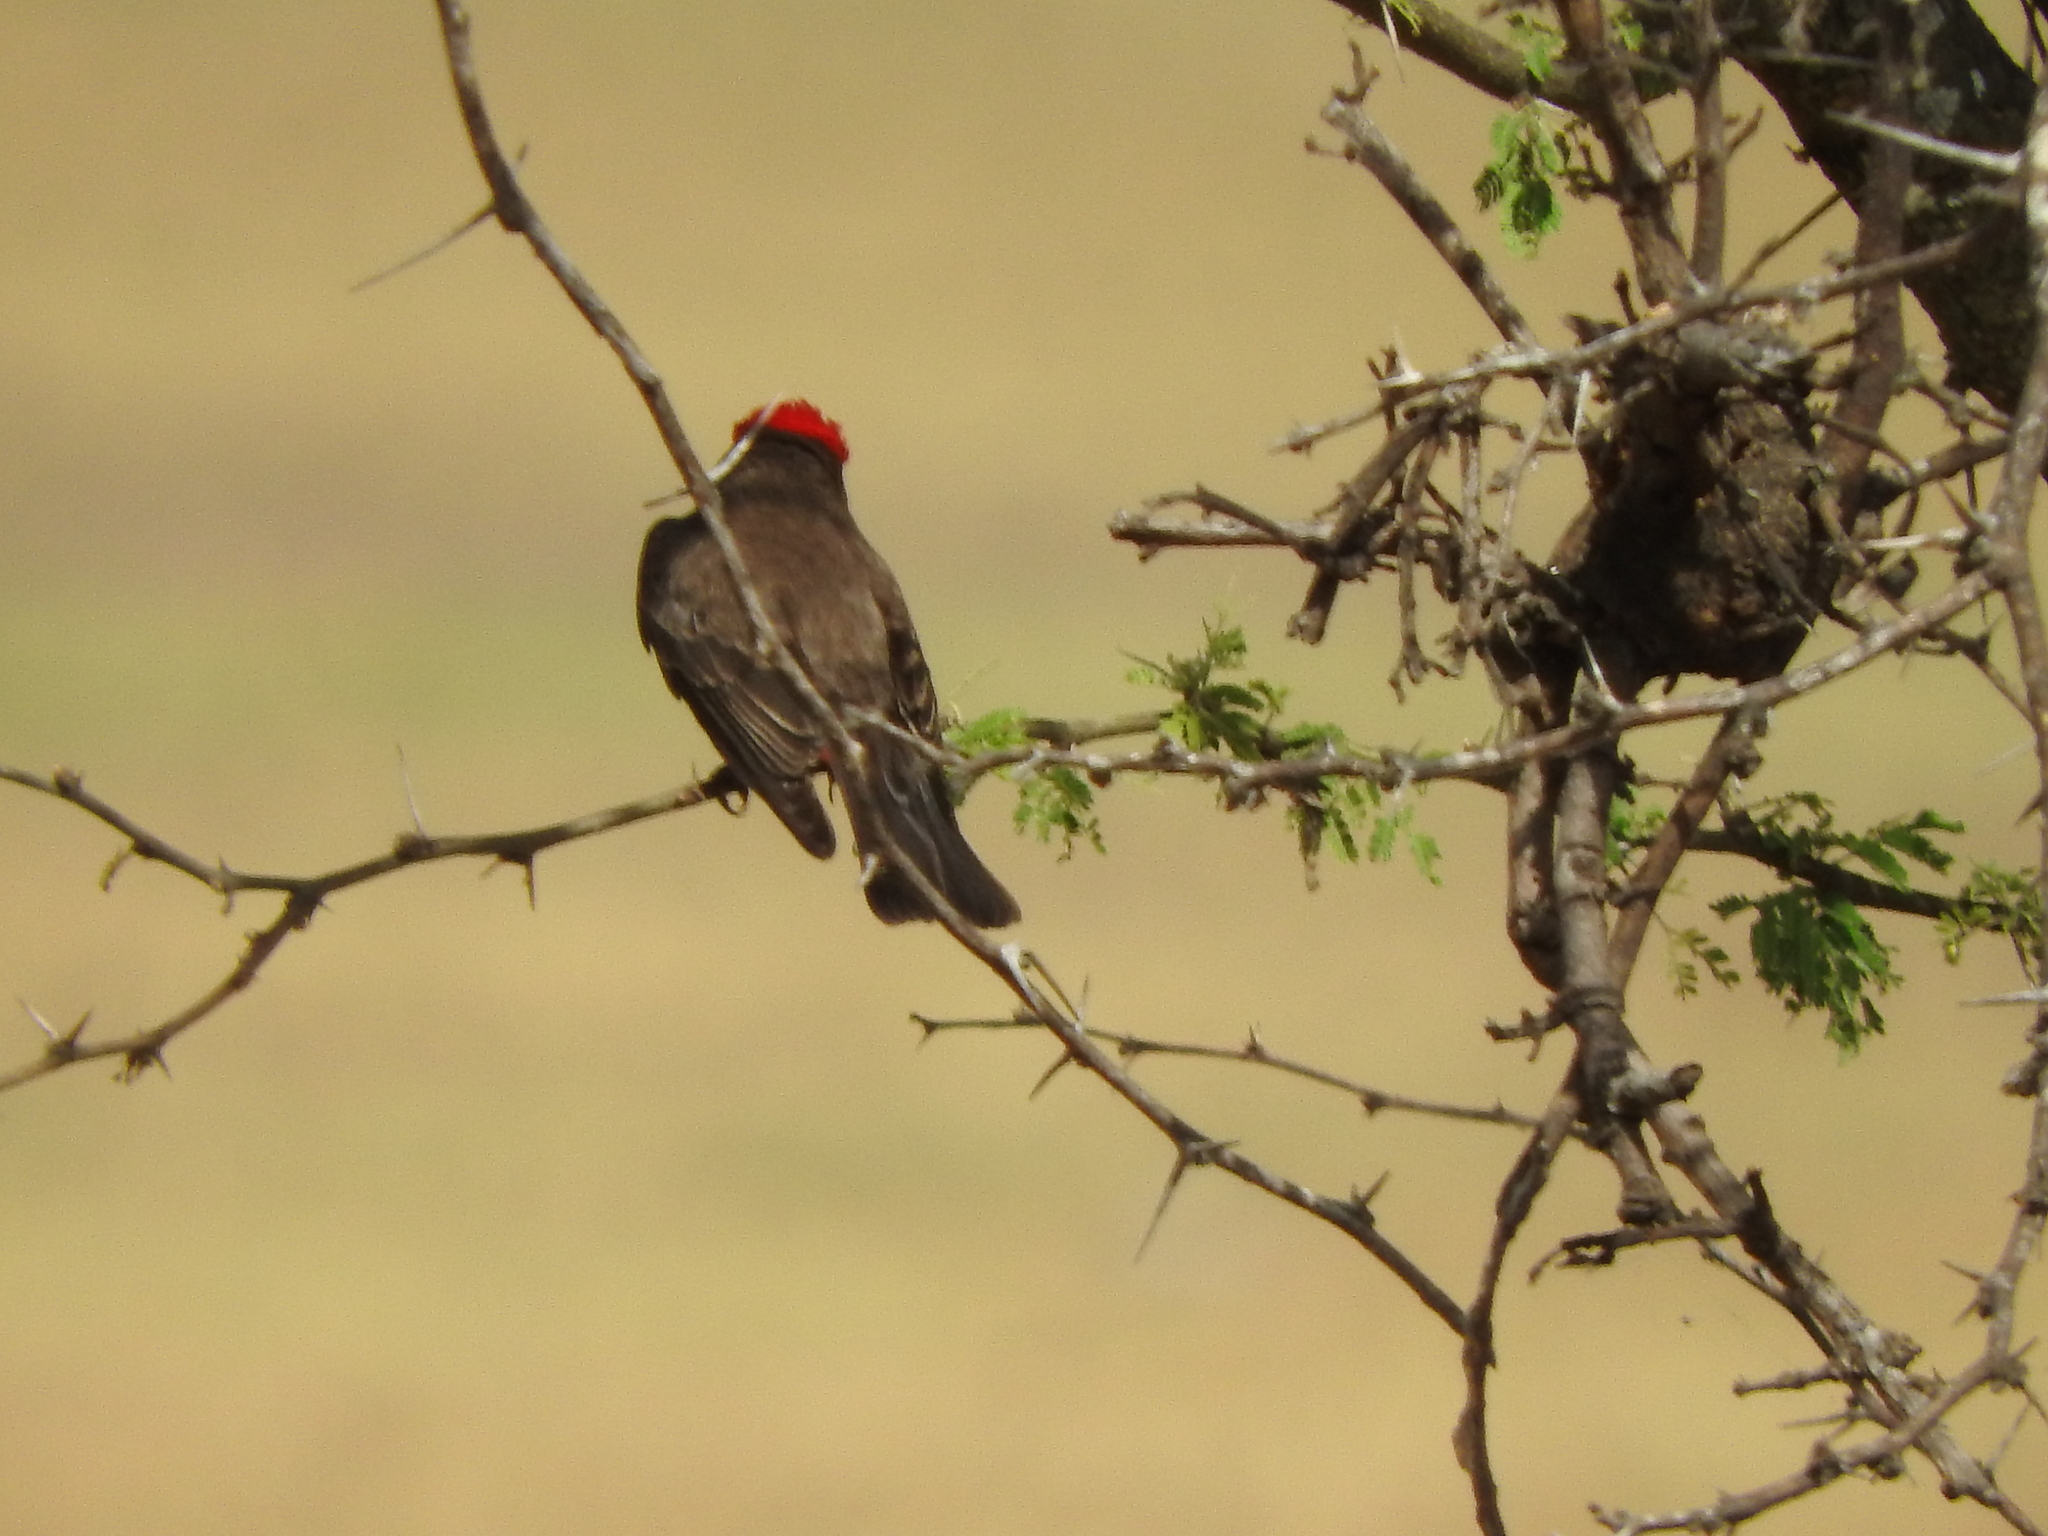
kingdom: Animalia
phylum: Chordata
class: Aves
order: Passeriformes
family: Tyrannidae
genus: Pyrocephalus
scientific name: Pyrocephalus rubinus
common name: Vermilion flycatcher
